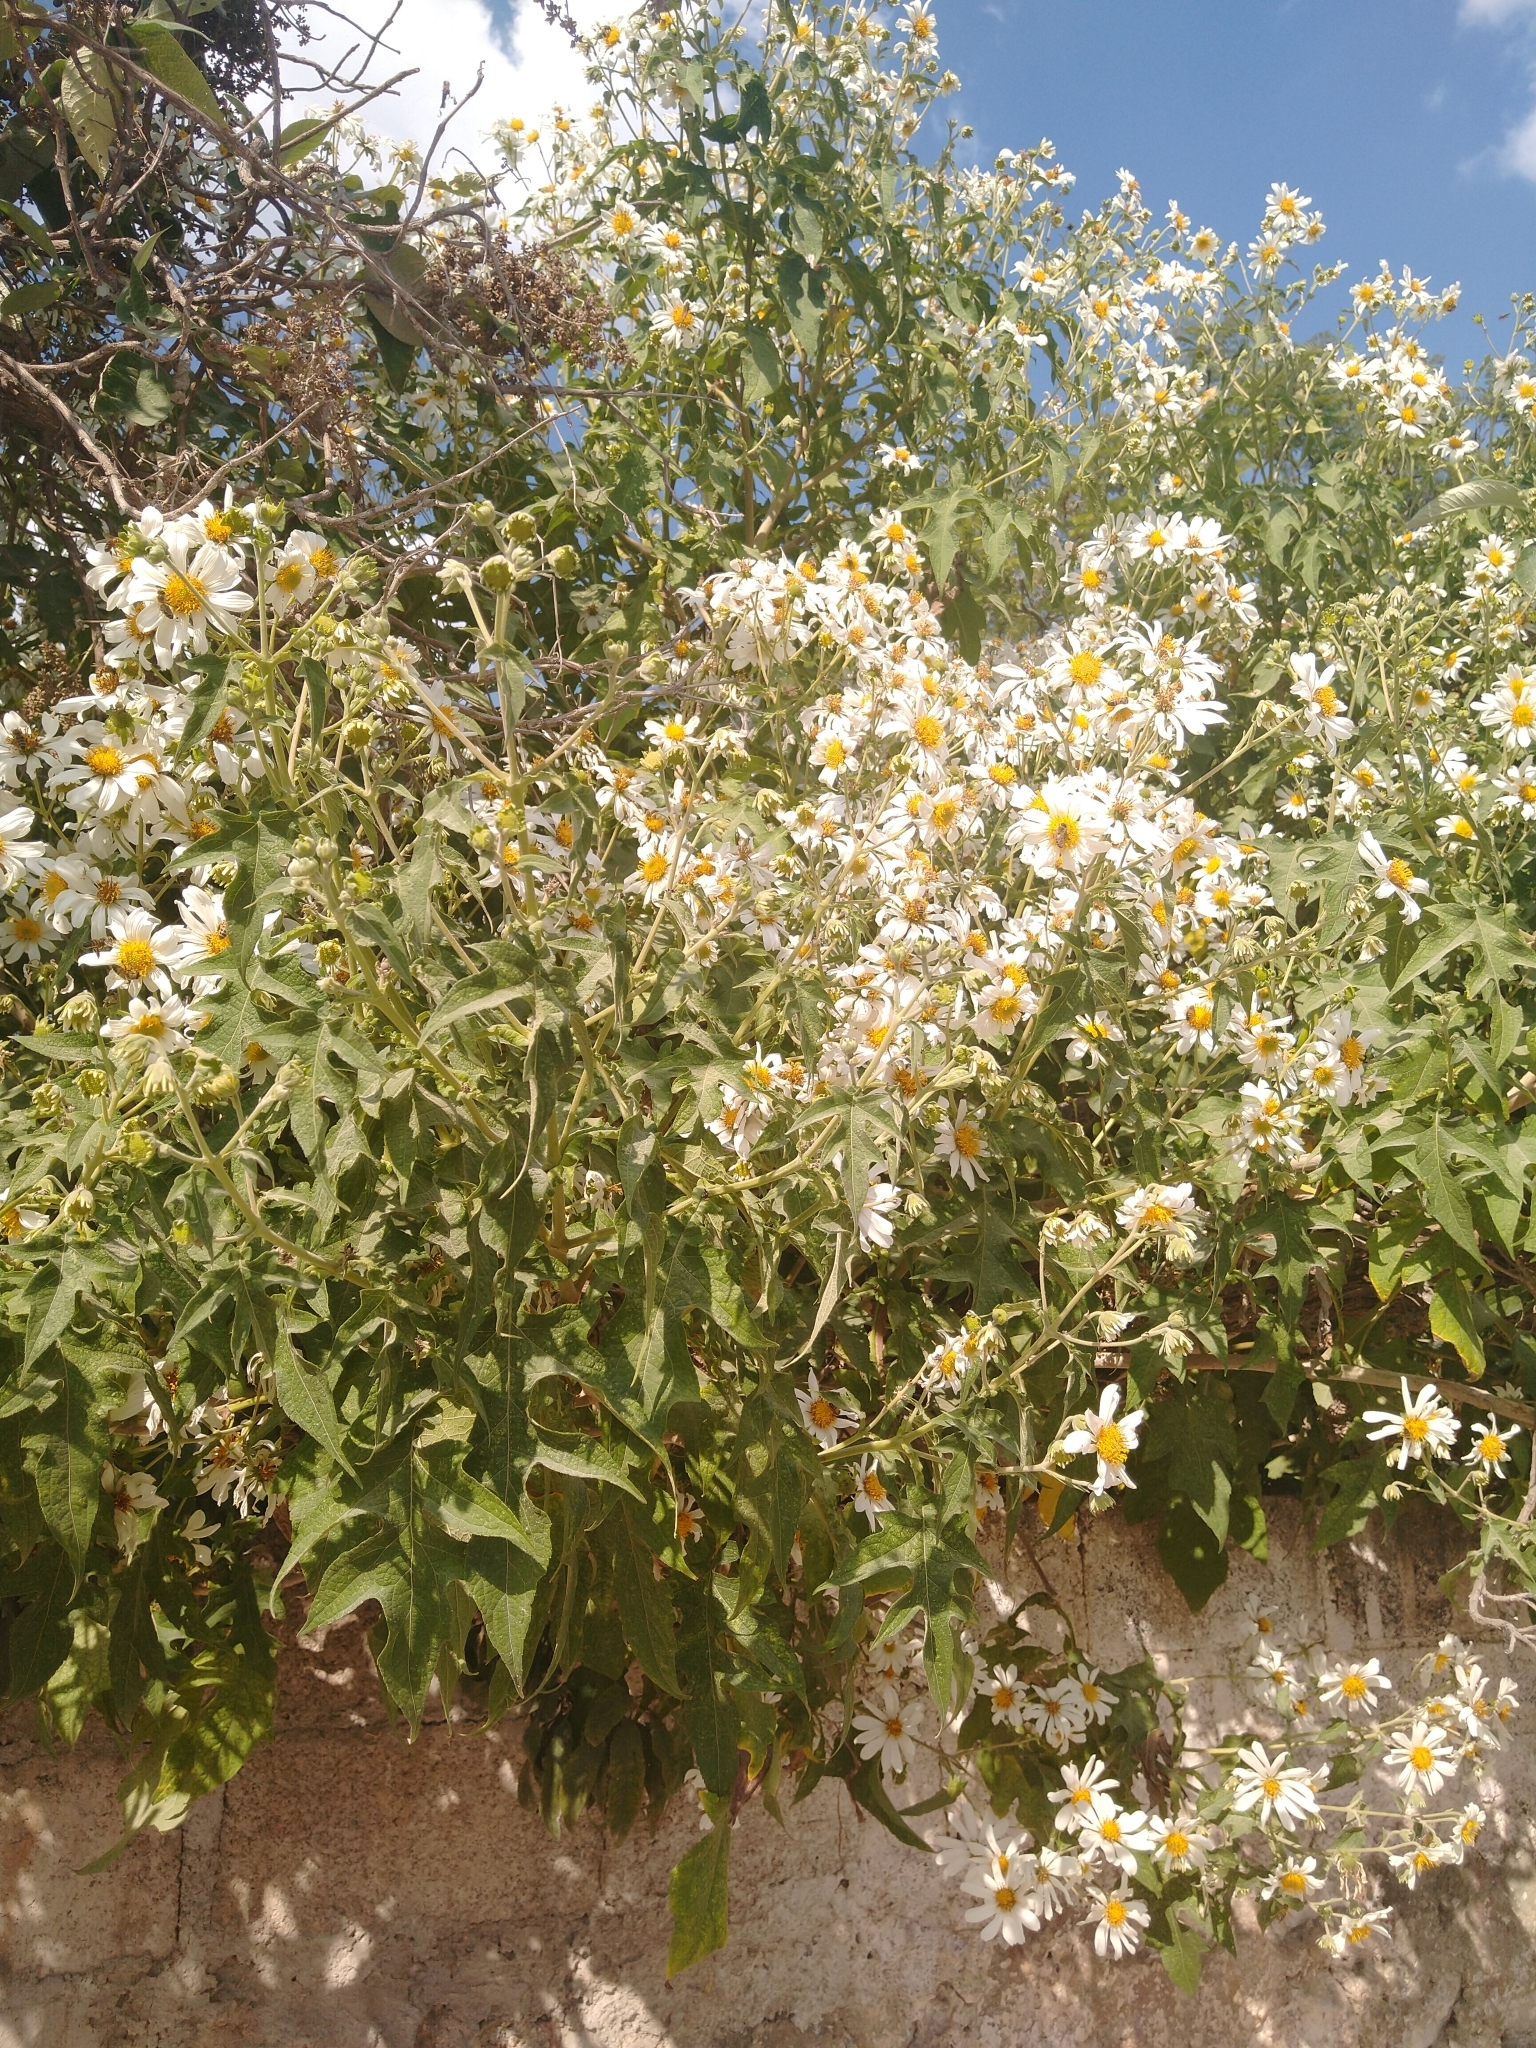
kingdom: Plantae
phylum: Tracheophyta
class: Magnoliopsida
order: Asterales
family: Asteraceae
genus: Montanoa
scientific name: Montanoa grandiflora
